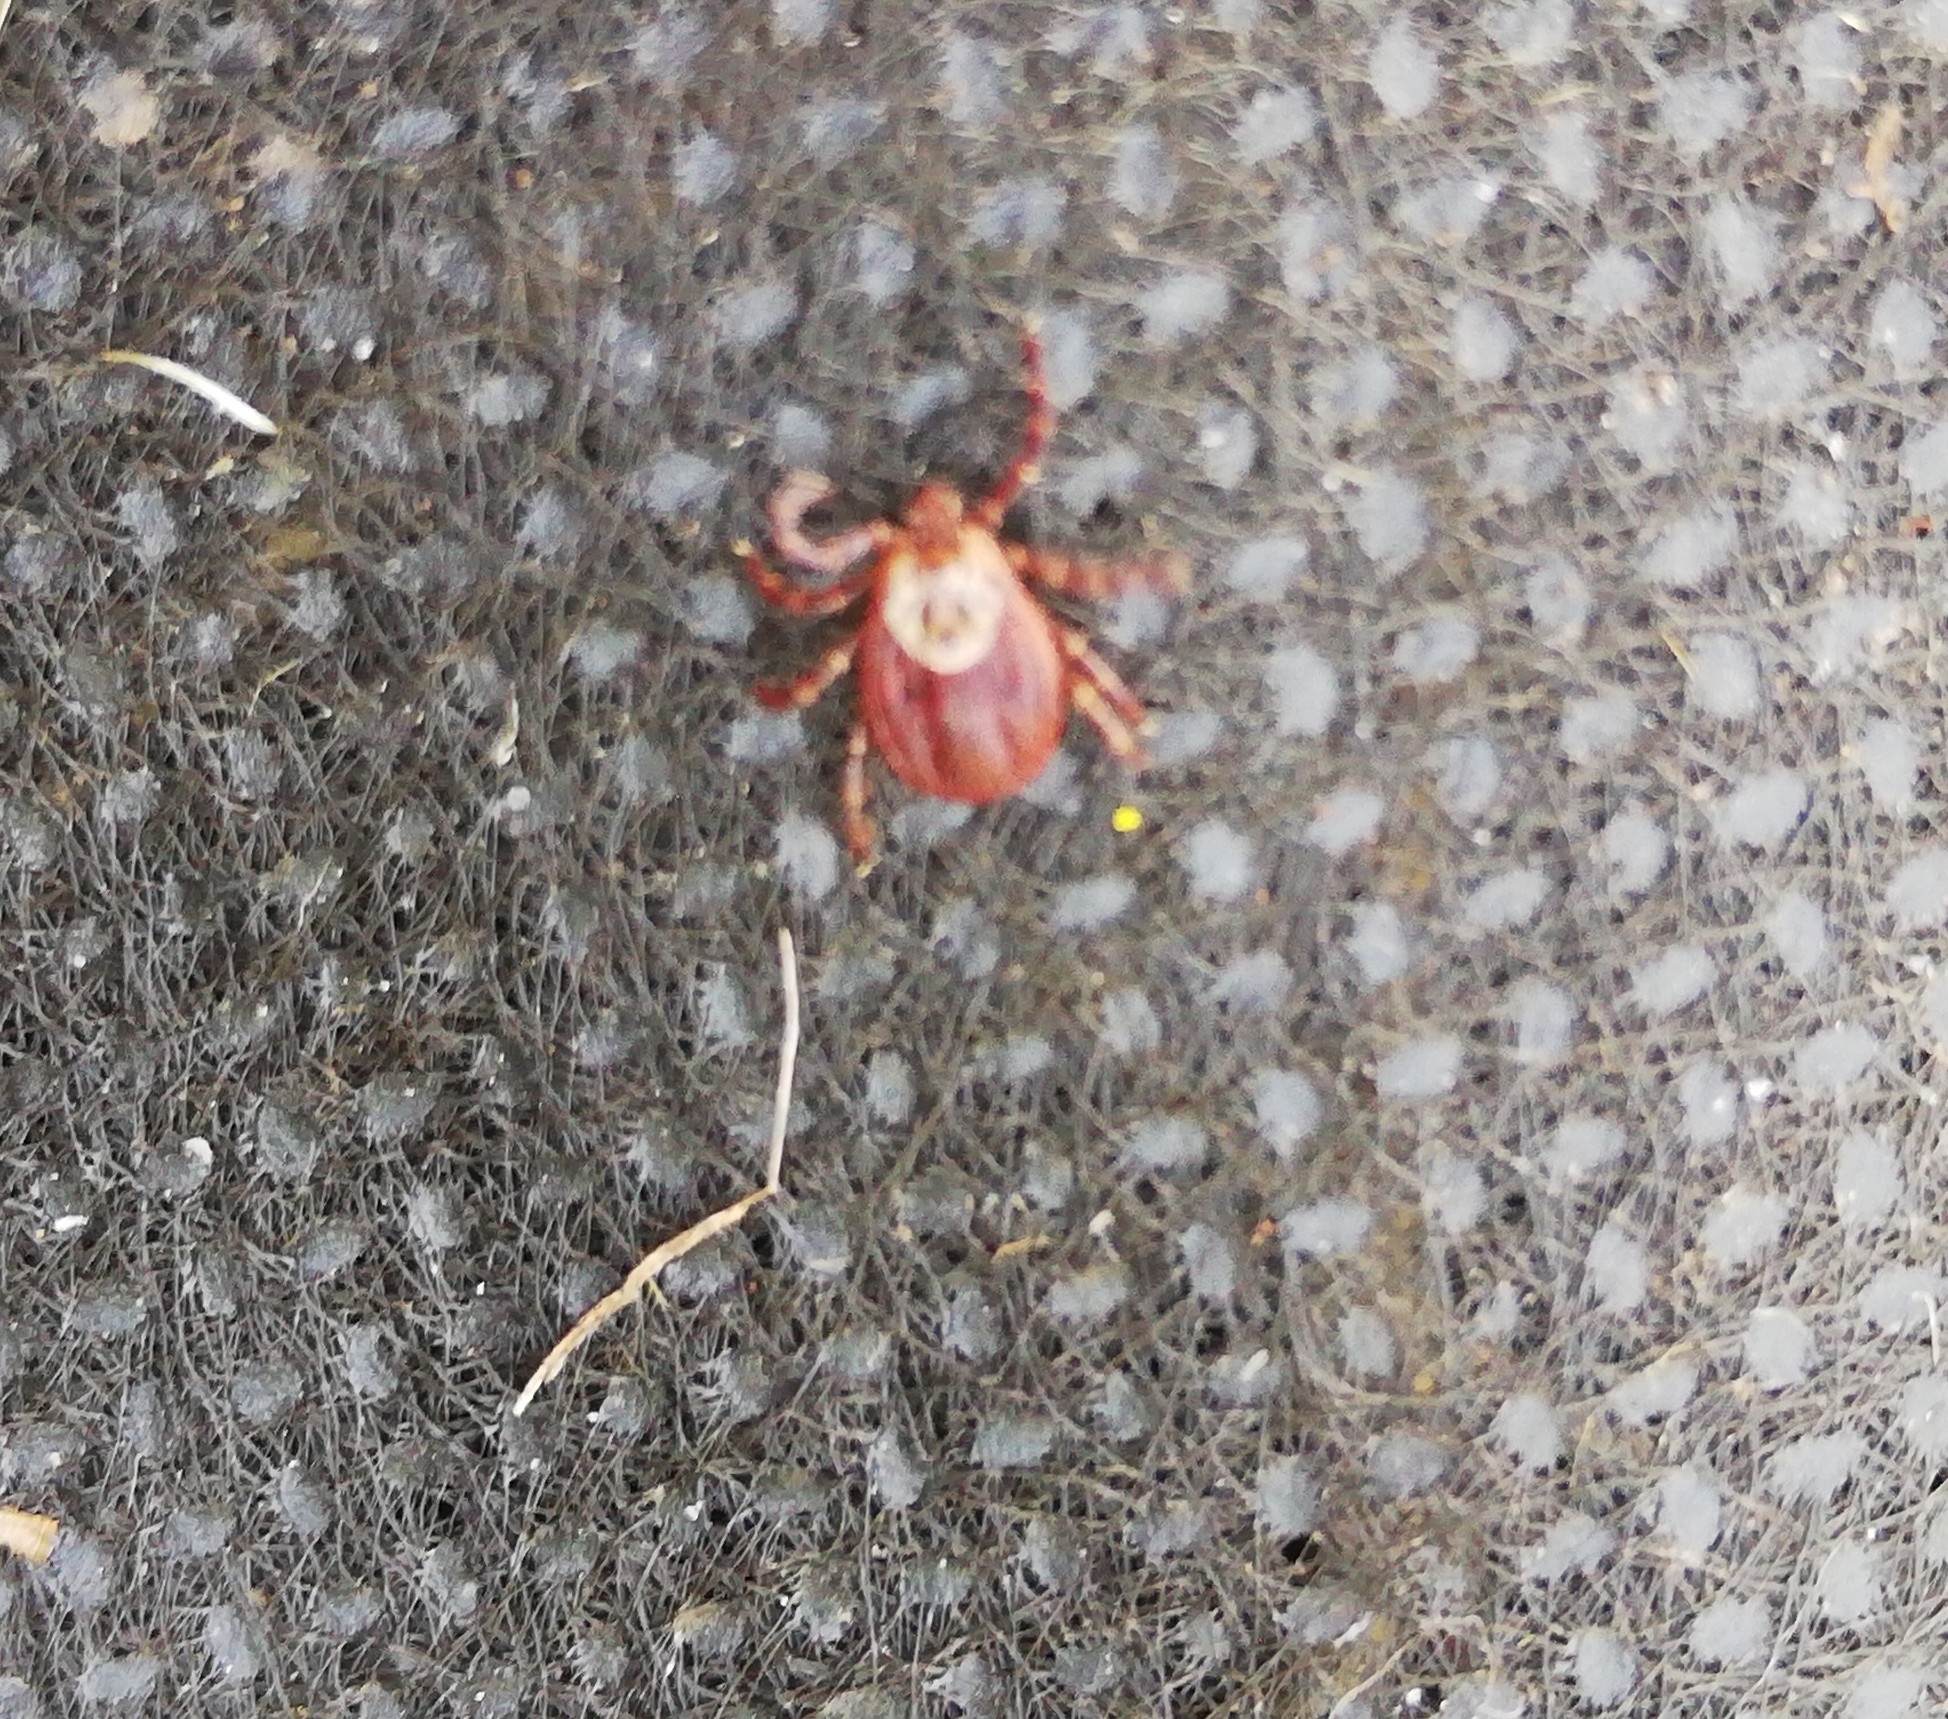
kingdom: Animalia
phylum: Arthropoda
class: Arachnida
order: Ixodida
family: Ixodidae
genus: Dermacentor
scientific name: Dermacentor reticulatus
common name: Ornate cow tick
